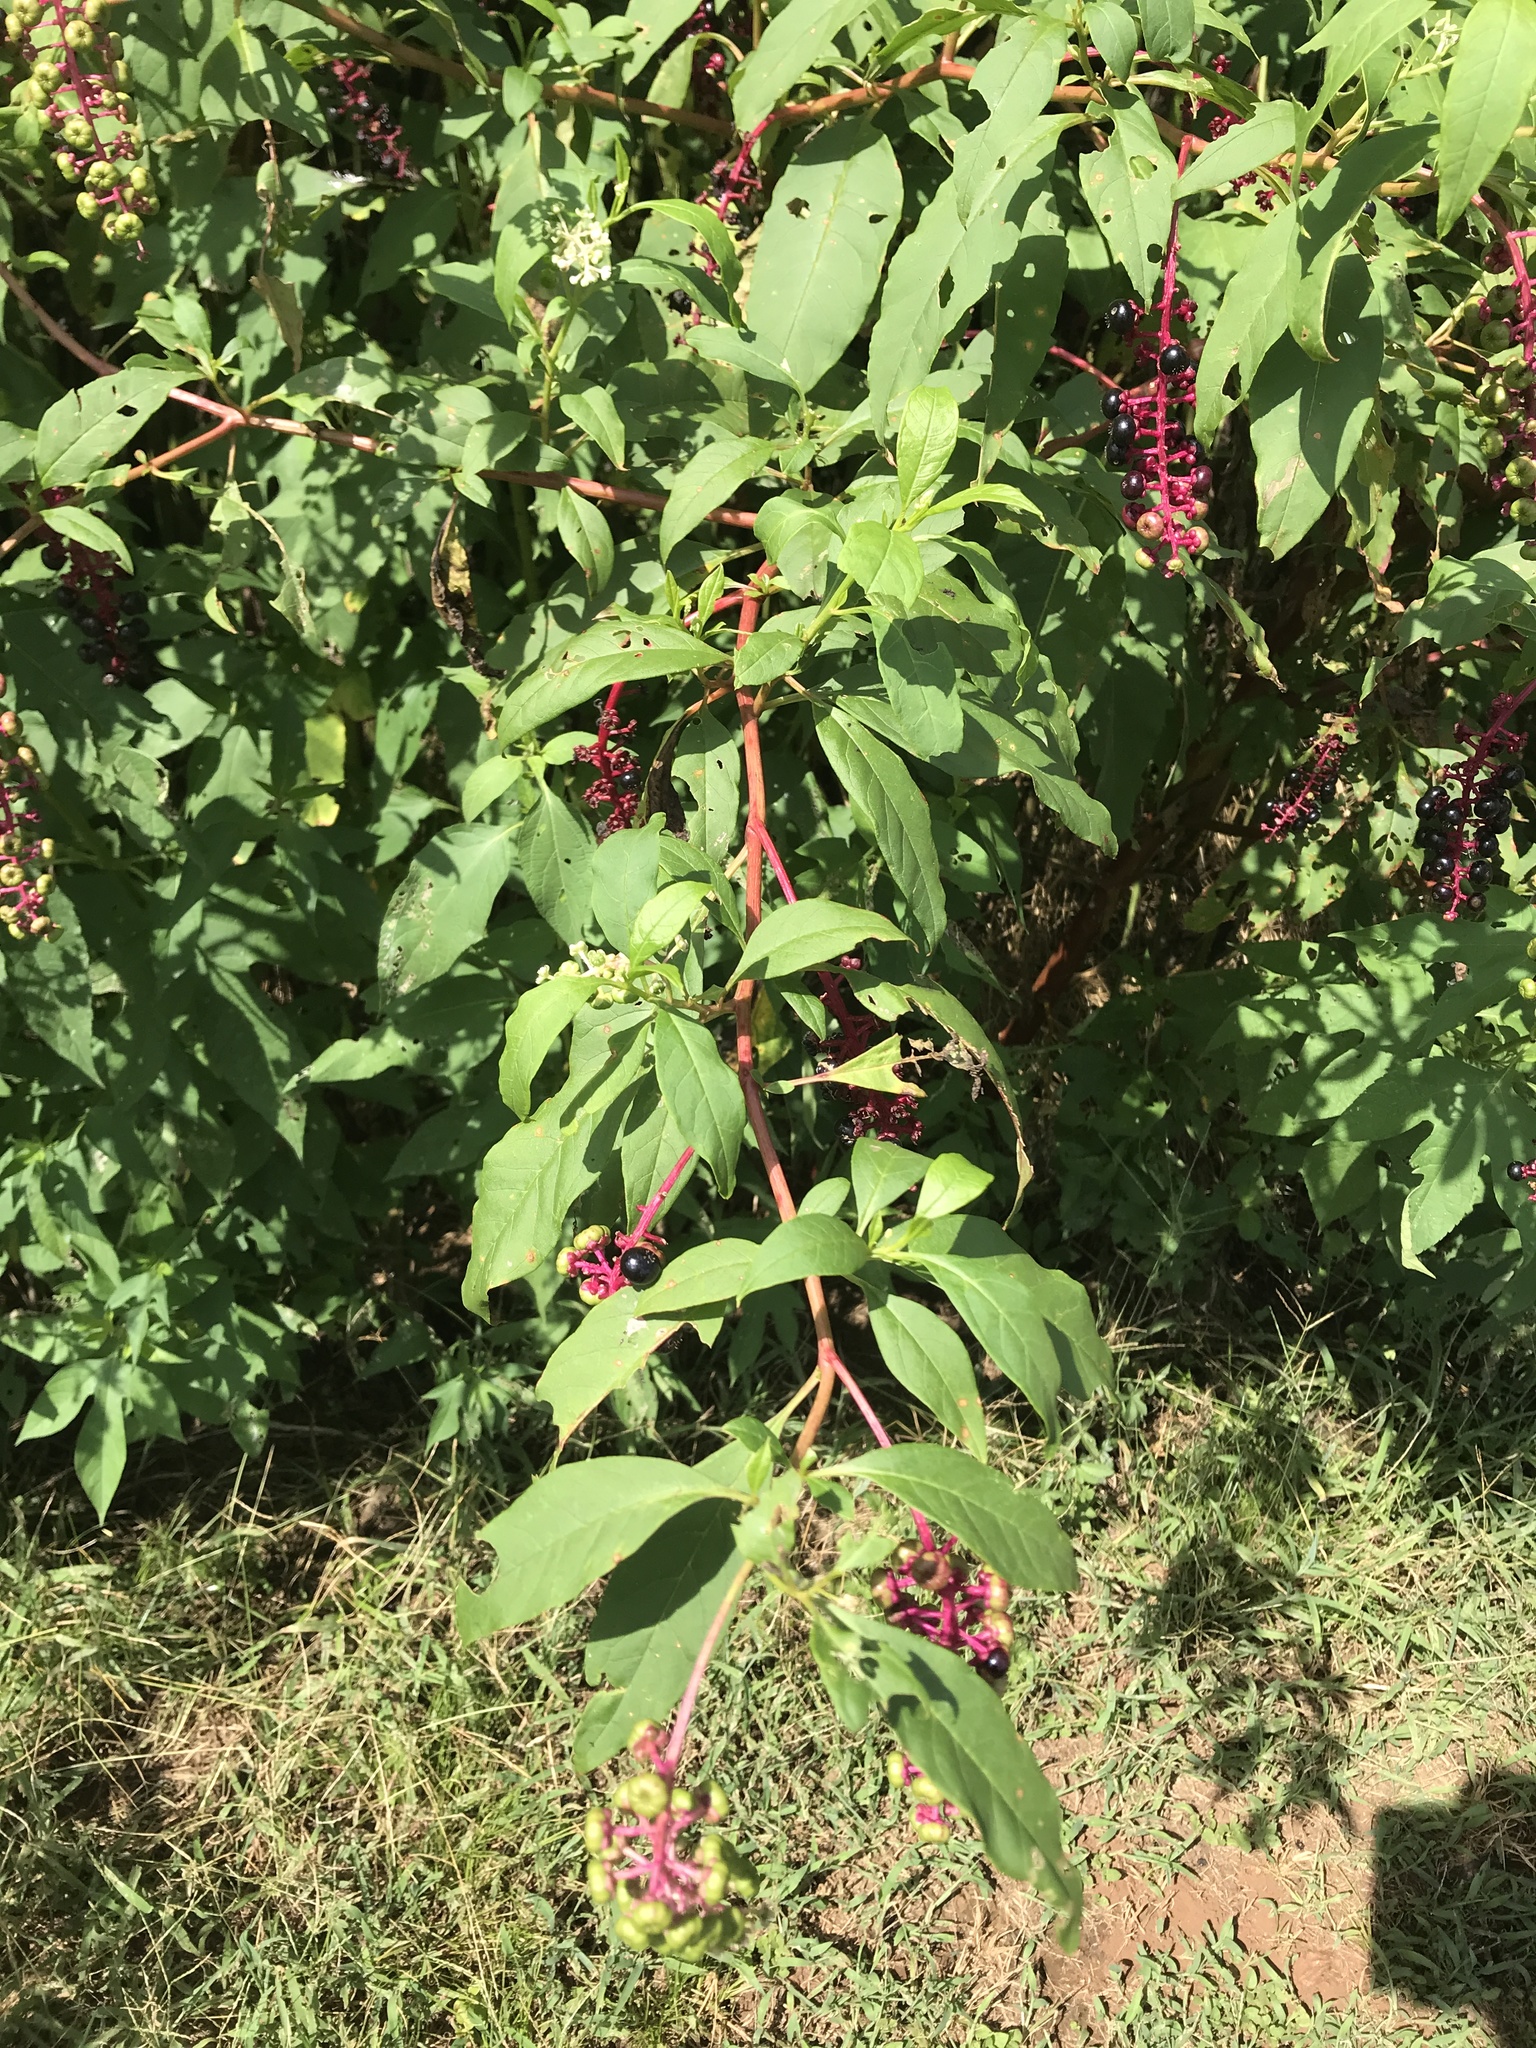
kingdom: Plantae
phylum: Tracheophyta
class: Magnoliopsida
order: Caryophyllales
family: Phytolaccaceae
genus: Phytolacca
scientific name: Phytolacca americana
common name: American pokeweed
